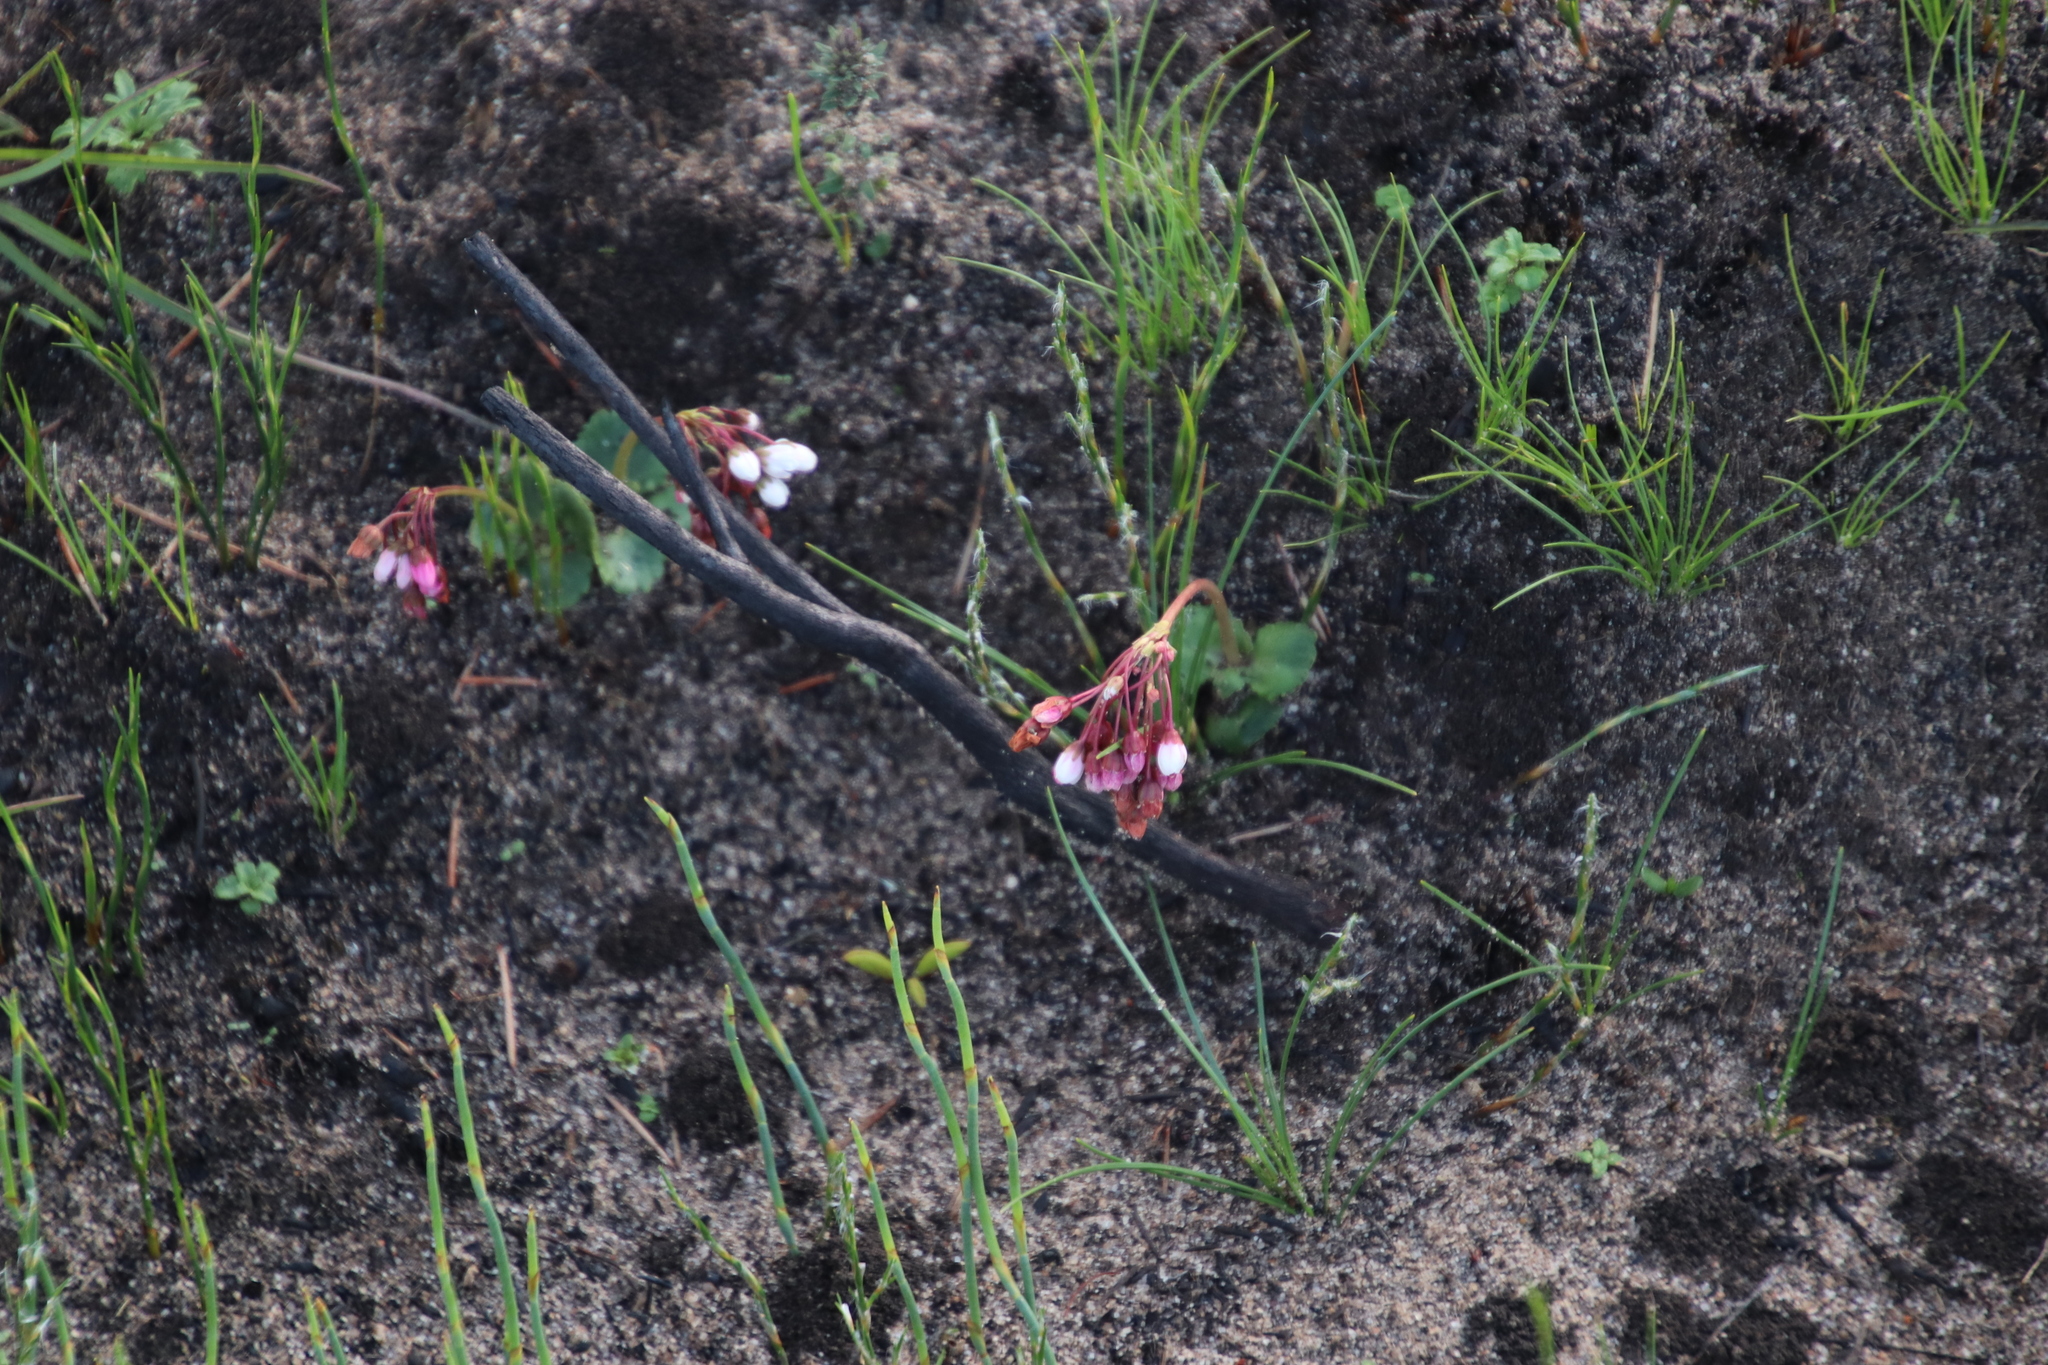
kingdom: Plantae
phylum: Tracheophyta
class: Magnoliopsida
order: Saxifragales
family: Crassulaceae
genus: Crassula
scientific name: Crassula capensis
